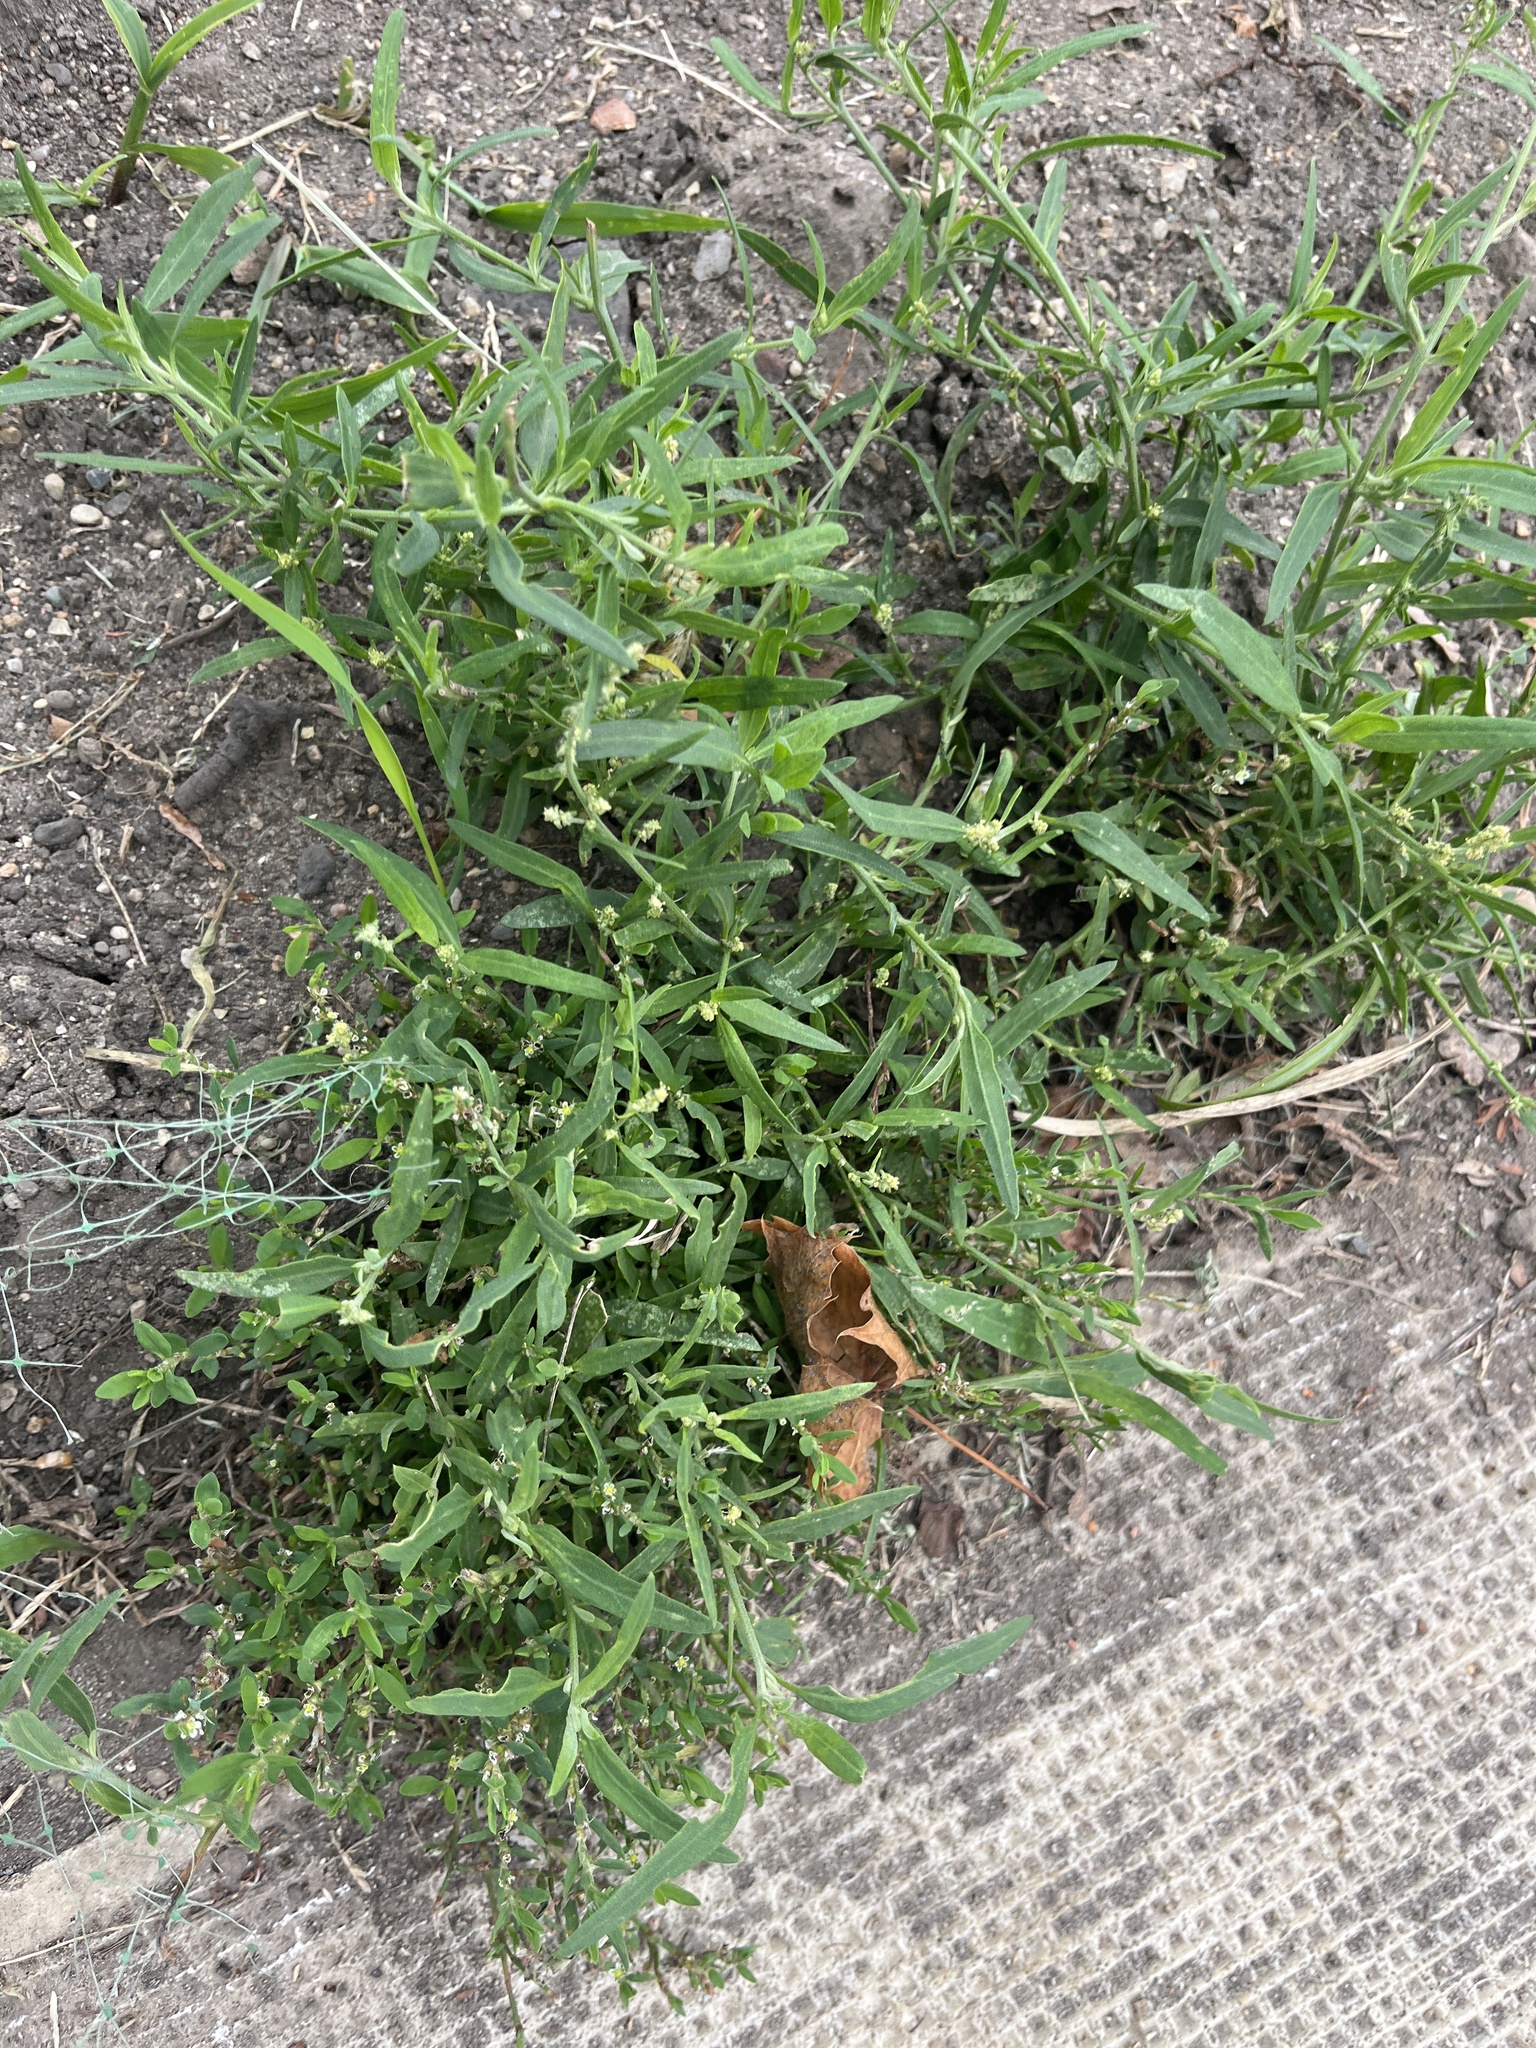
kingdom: Plantae
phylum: Tracheophyta
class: Magnoliopsida
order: Caryophyllales
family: Amaranthaceae
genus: Atriplex
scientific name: Atriplex patula
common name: Common orache
